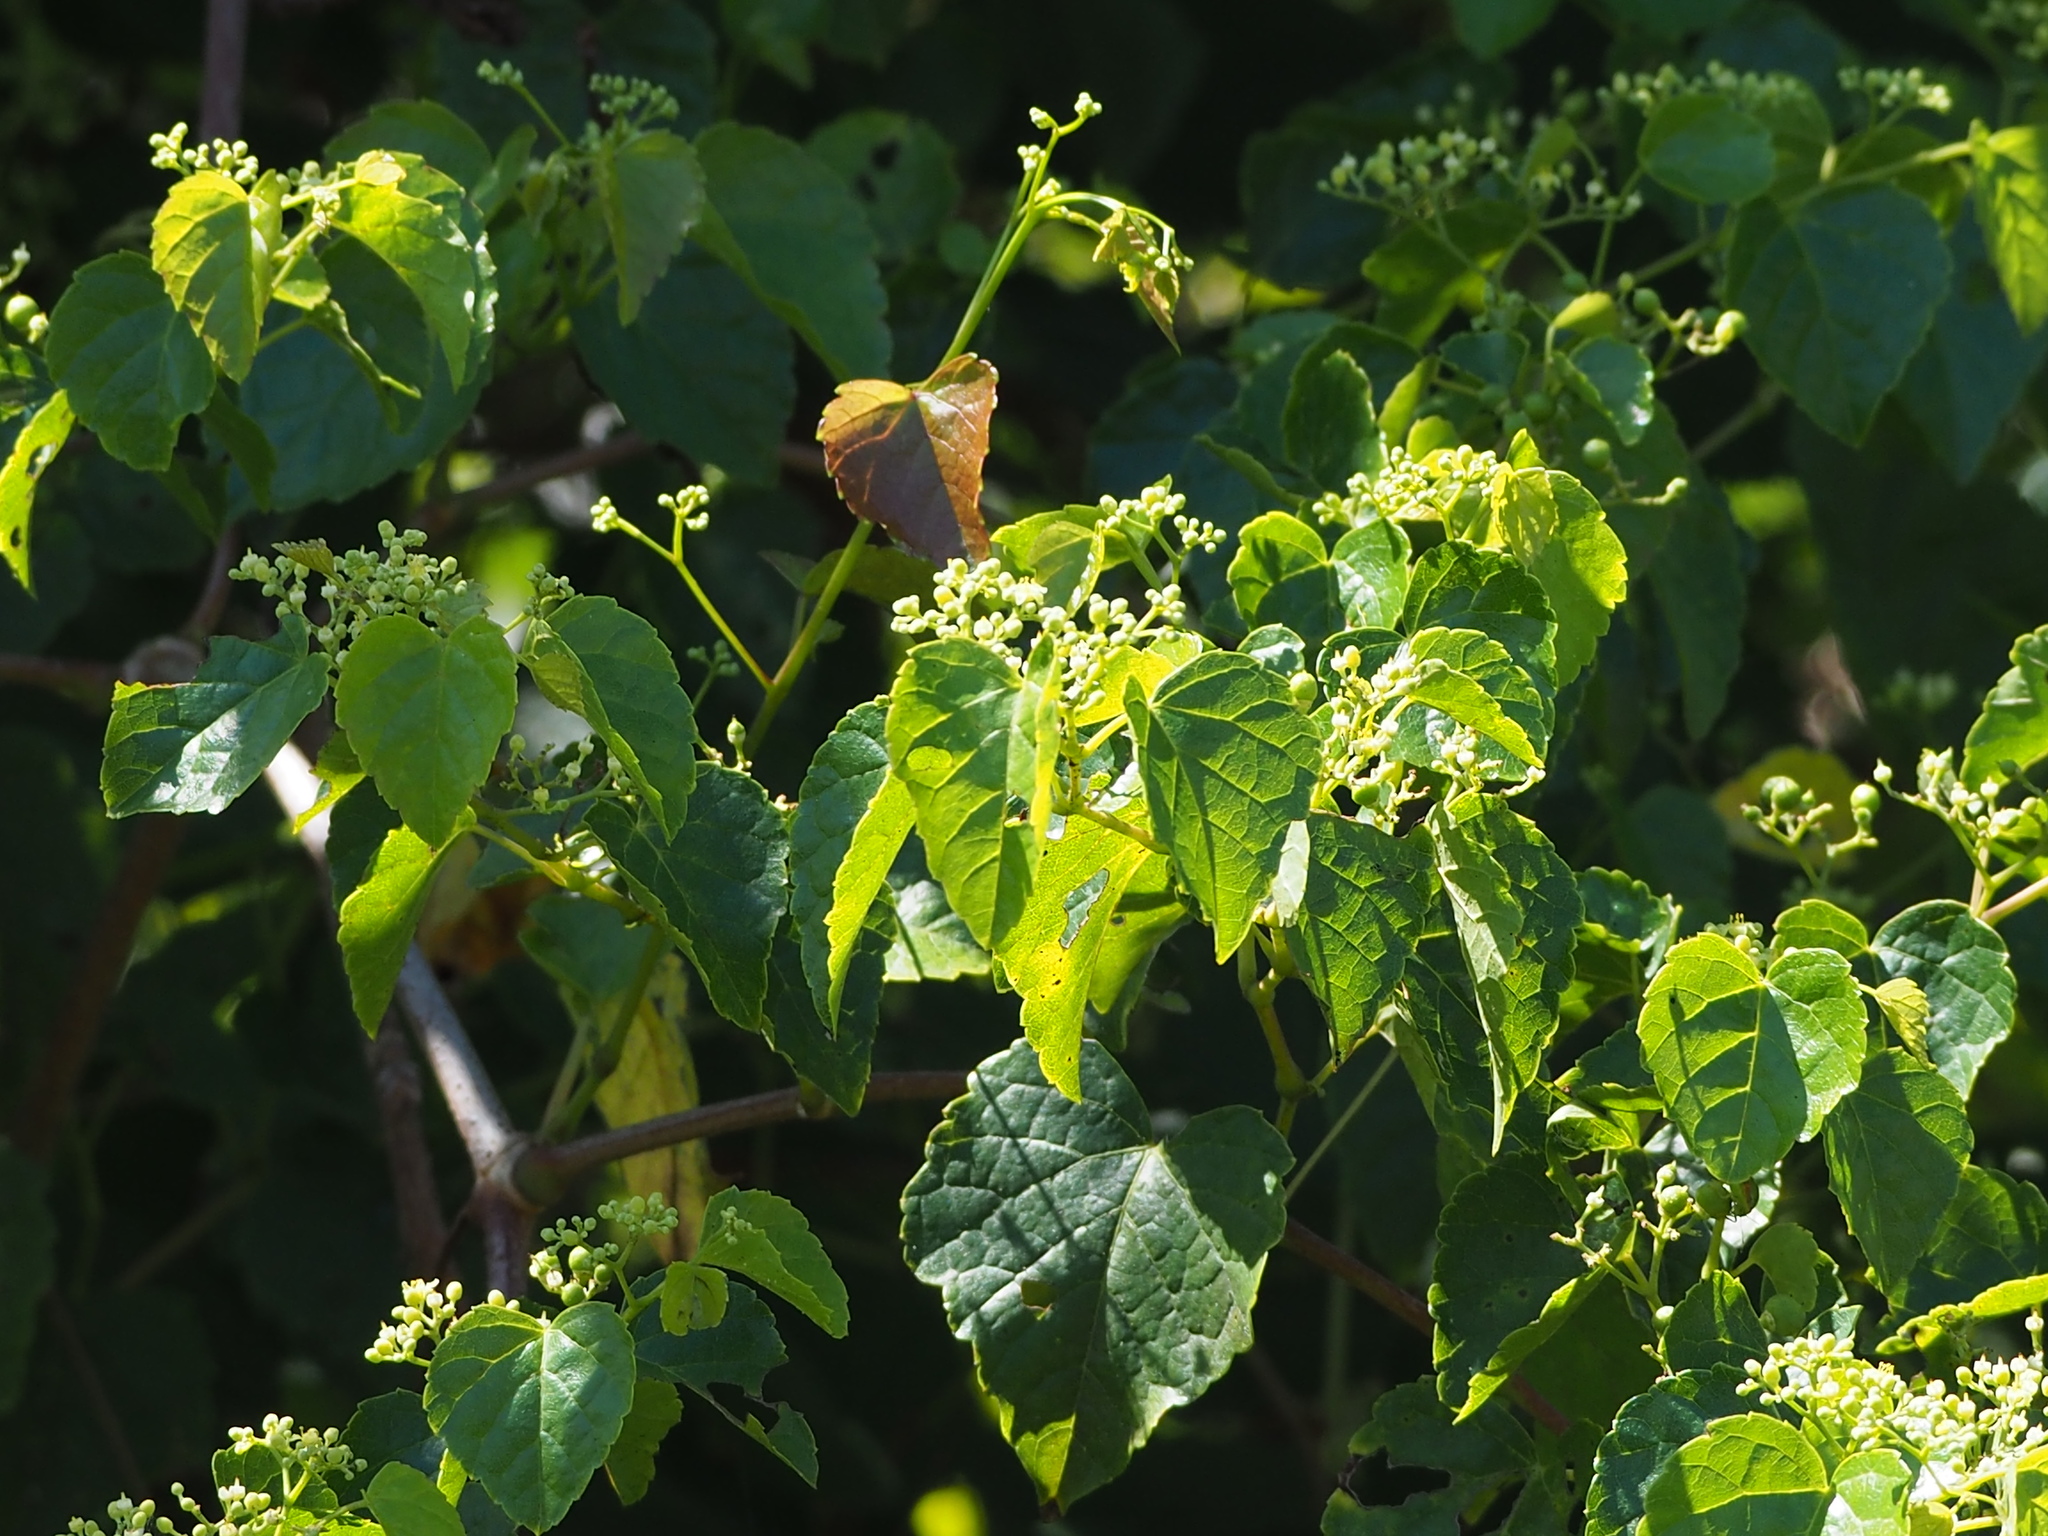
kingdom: Plantae
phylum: Tracheophyta
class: Magnoliopsida
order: Vitales
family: Vitaceae
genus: Ampelopsis
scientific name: Ampelopsis glandulosa
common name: Amur peppervine
